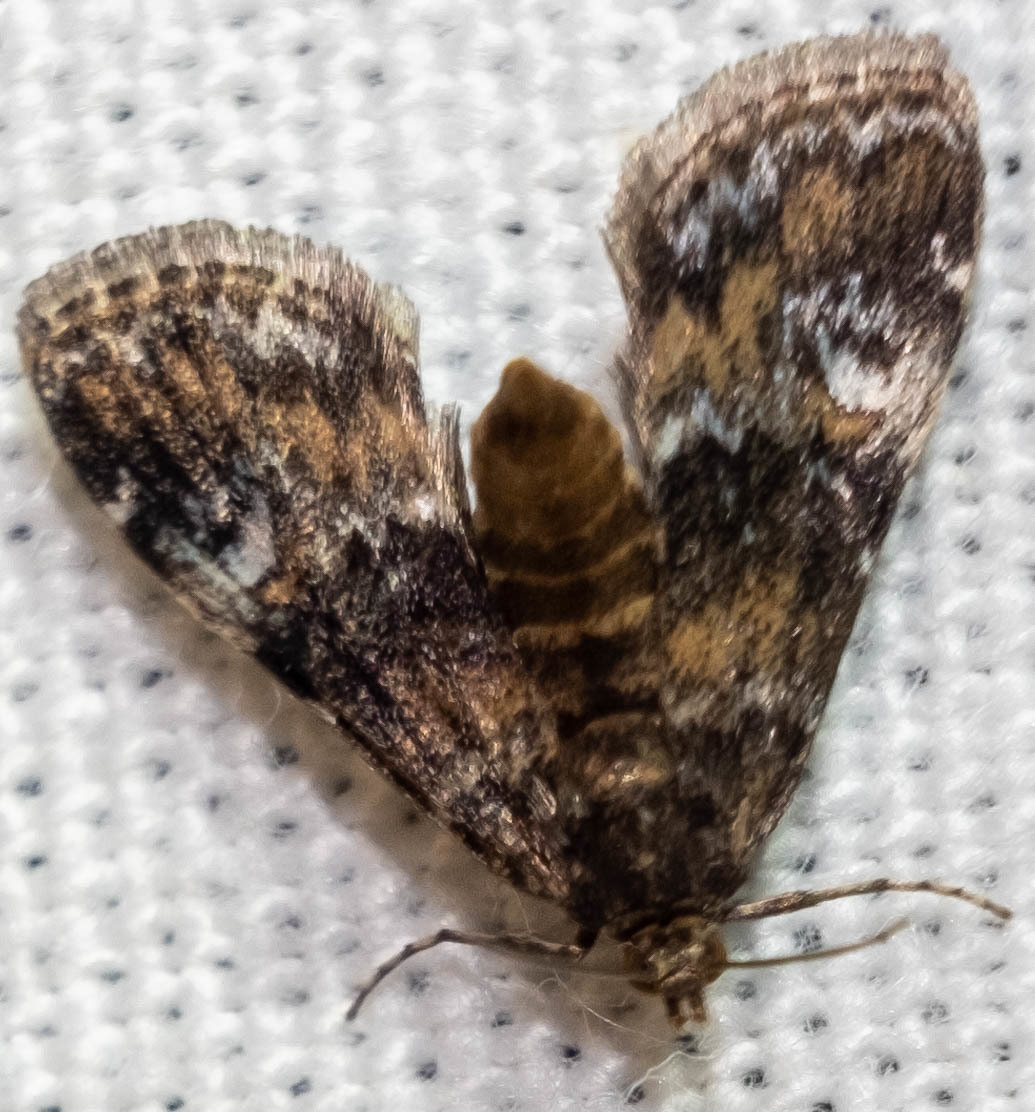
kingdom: Animalia
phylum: Arthropoda
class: Insecta
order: Lepidoptera
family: Crambidae
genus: Elophila
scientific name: Elophila obliteralis
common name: Waterlily leafcutter moth
